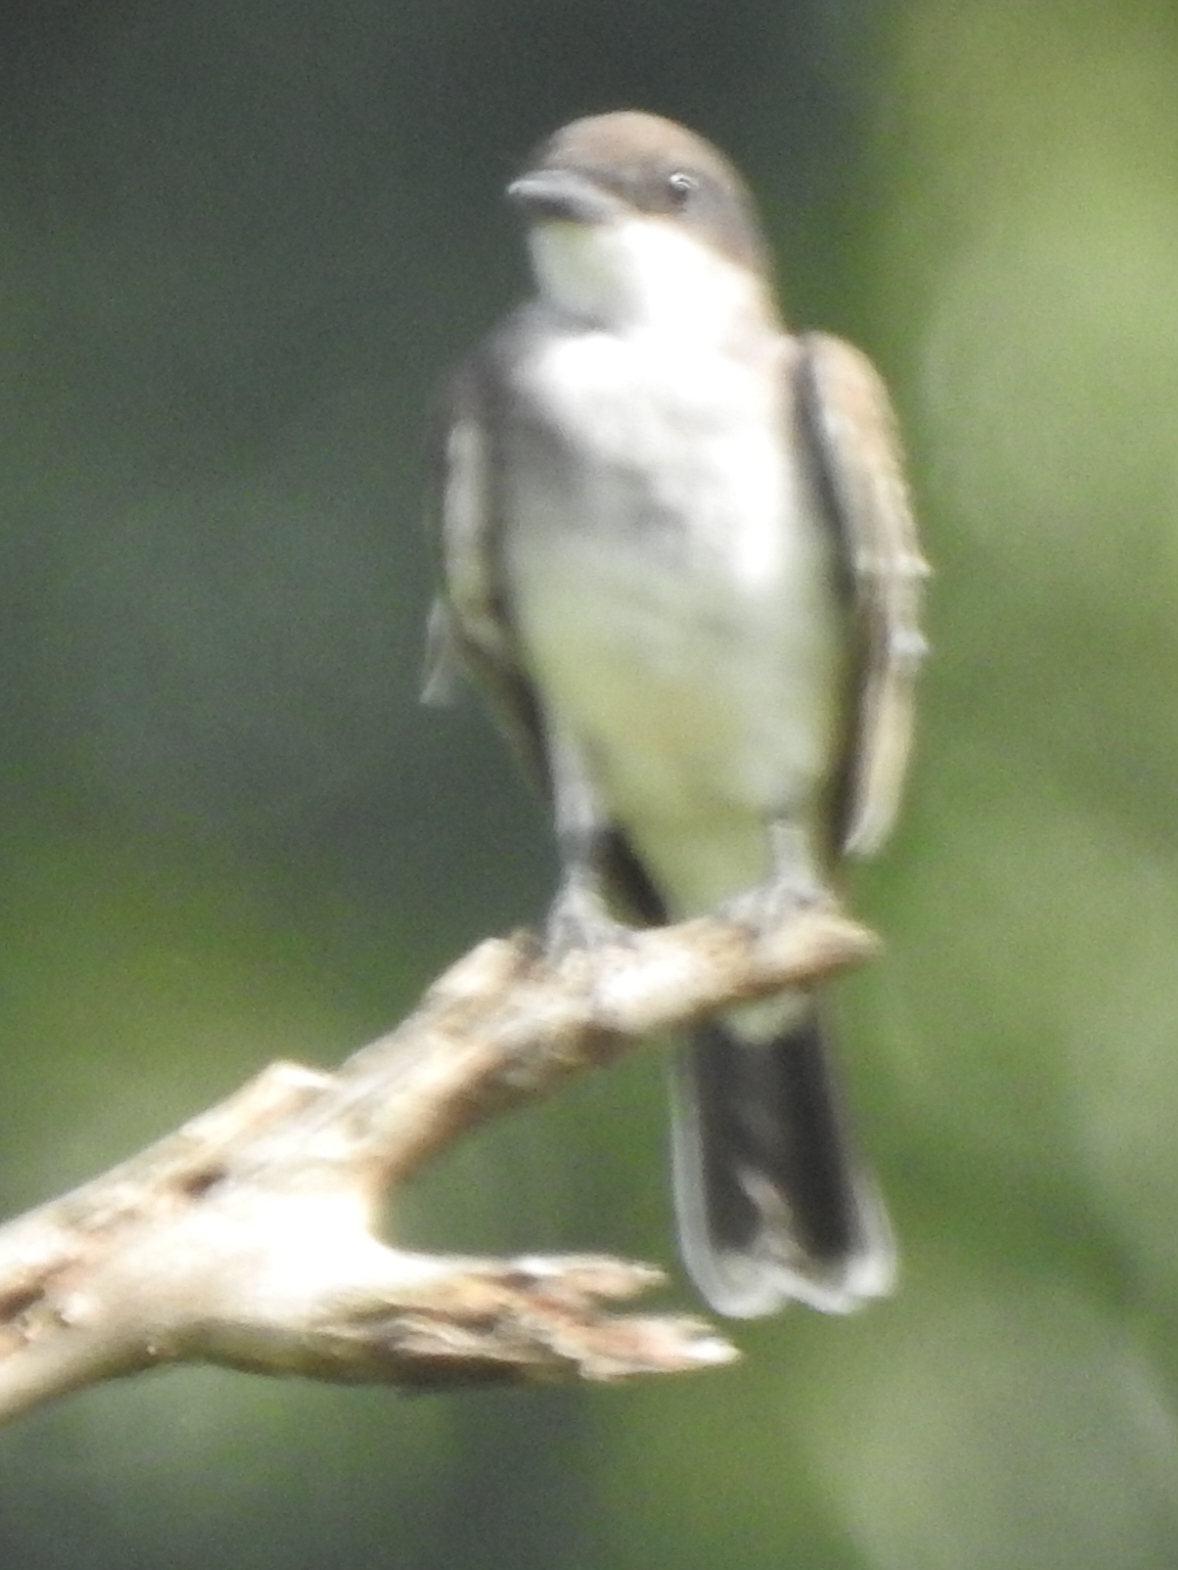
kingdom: Animalia
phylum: Chordata
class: Aves
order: Passeriformes
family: Tyrannidae
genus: Tyrannus
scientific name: Tyrannus tyrannus
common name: Eastern kingbird
